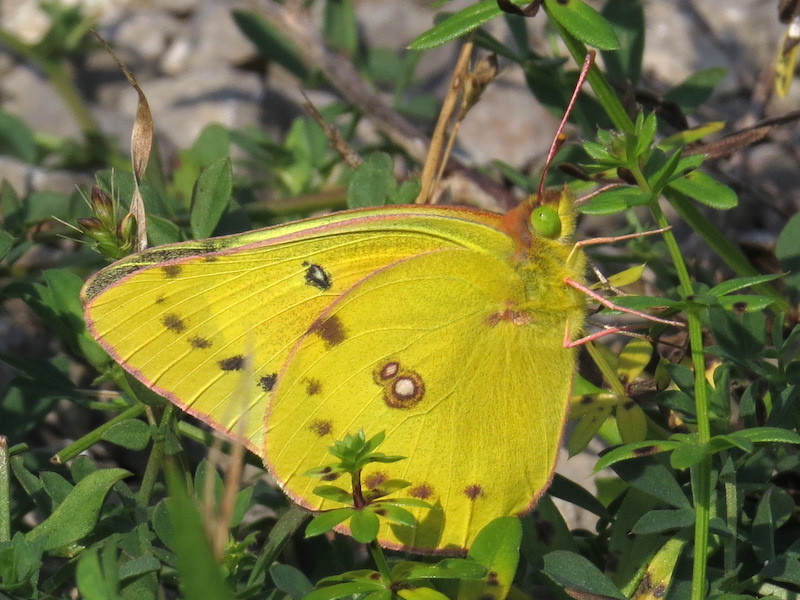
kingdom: Animalia
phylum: Arthropoda
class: Insecta
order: Lepidoptera
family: Pieridae
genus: Colias
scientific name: Colias eurytheme
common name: Alfalfa butterfly
